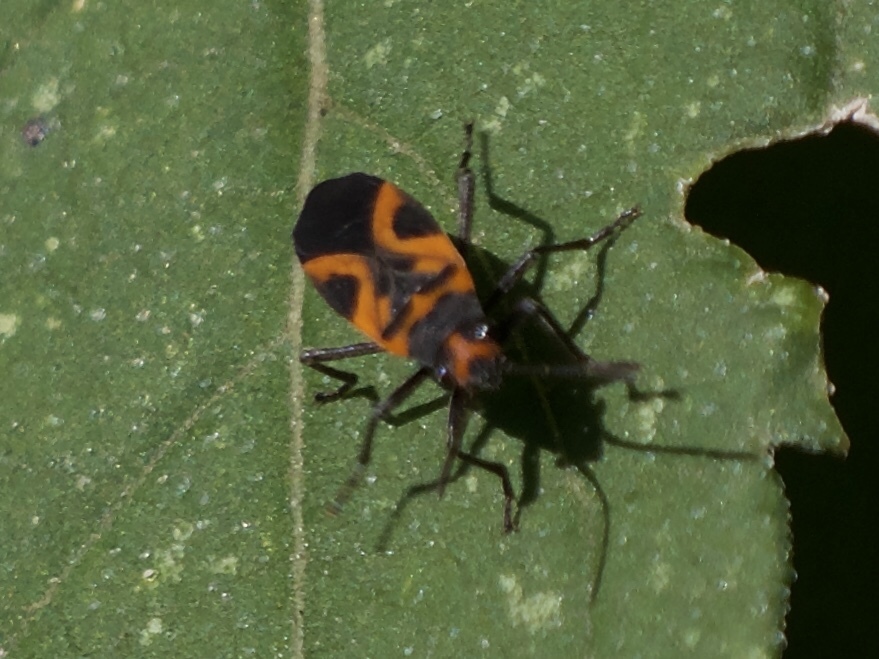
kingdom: Animalia
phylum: Arthropoda
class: Insecta
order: Hemiptera
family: Lygaeidae
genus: Lygaeus
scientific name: Lygaeus turcicus
